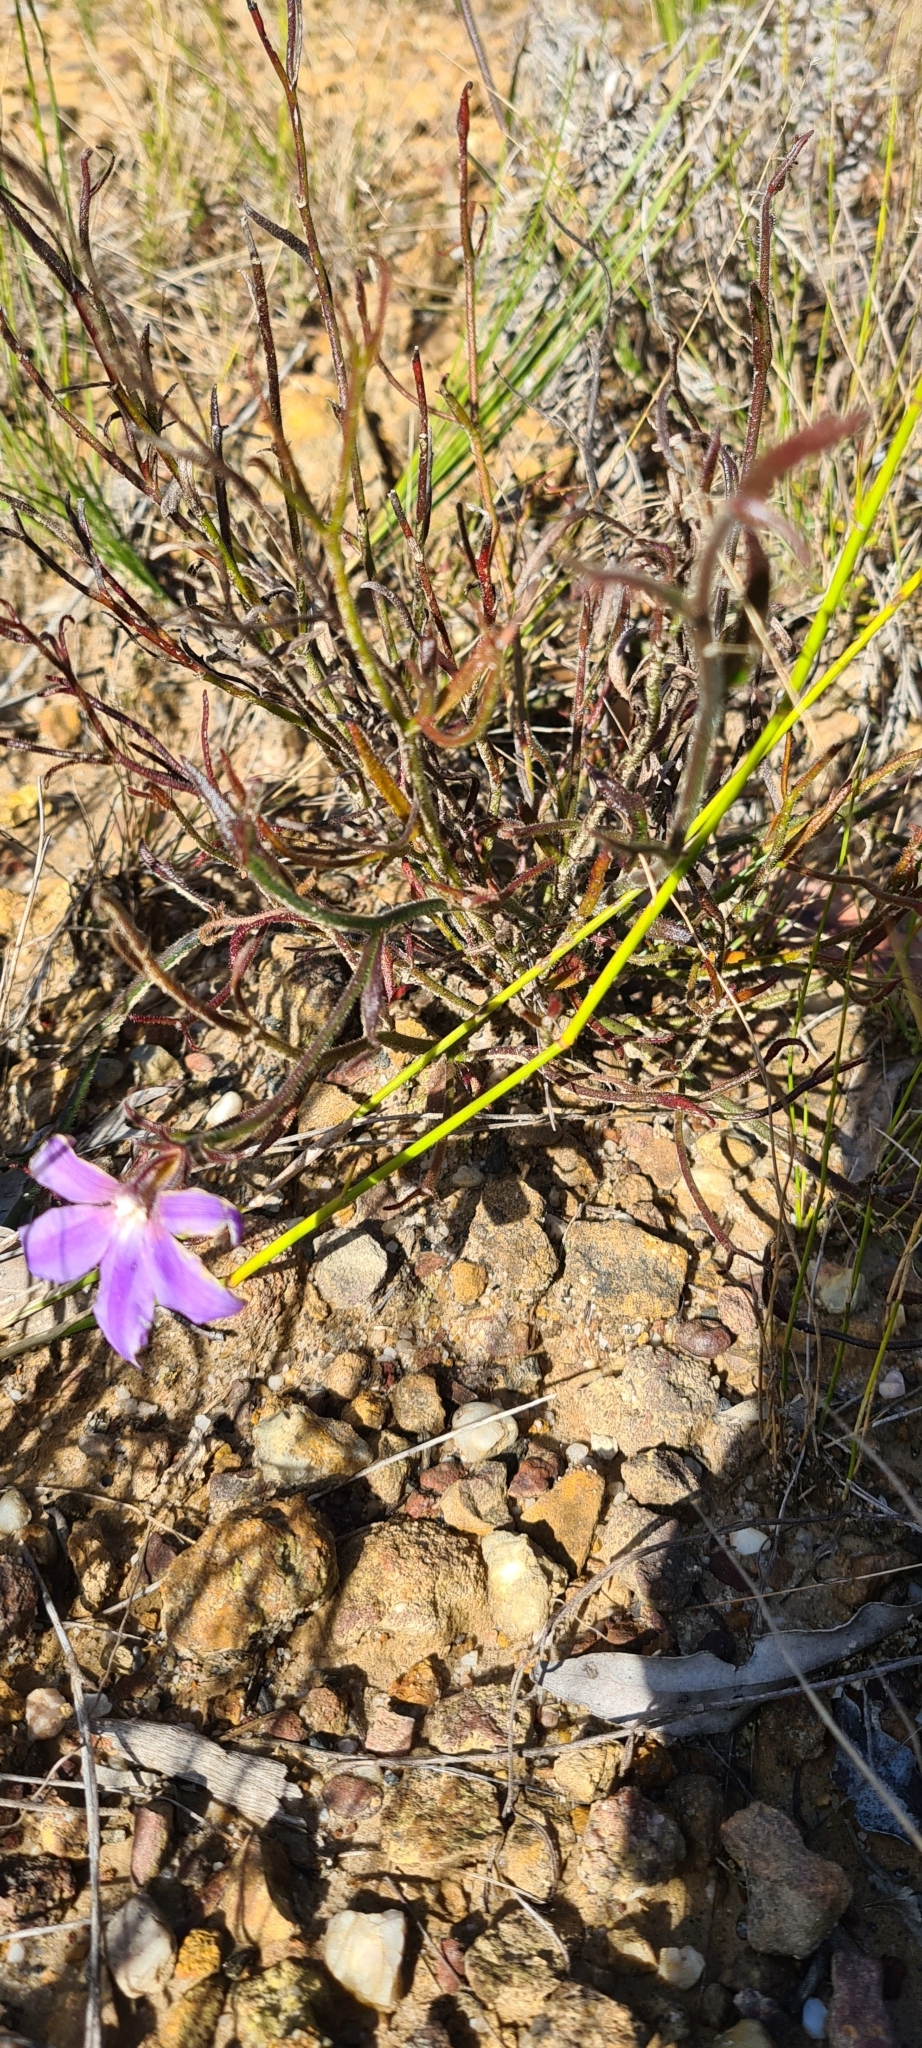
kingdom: Plantae
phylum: Tracheophyta
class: Magnoliopsida
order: Asterales
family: Goodeniaceae
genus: Scaevola
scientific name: Scaevola ramosissima
